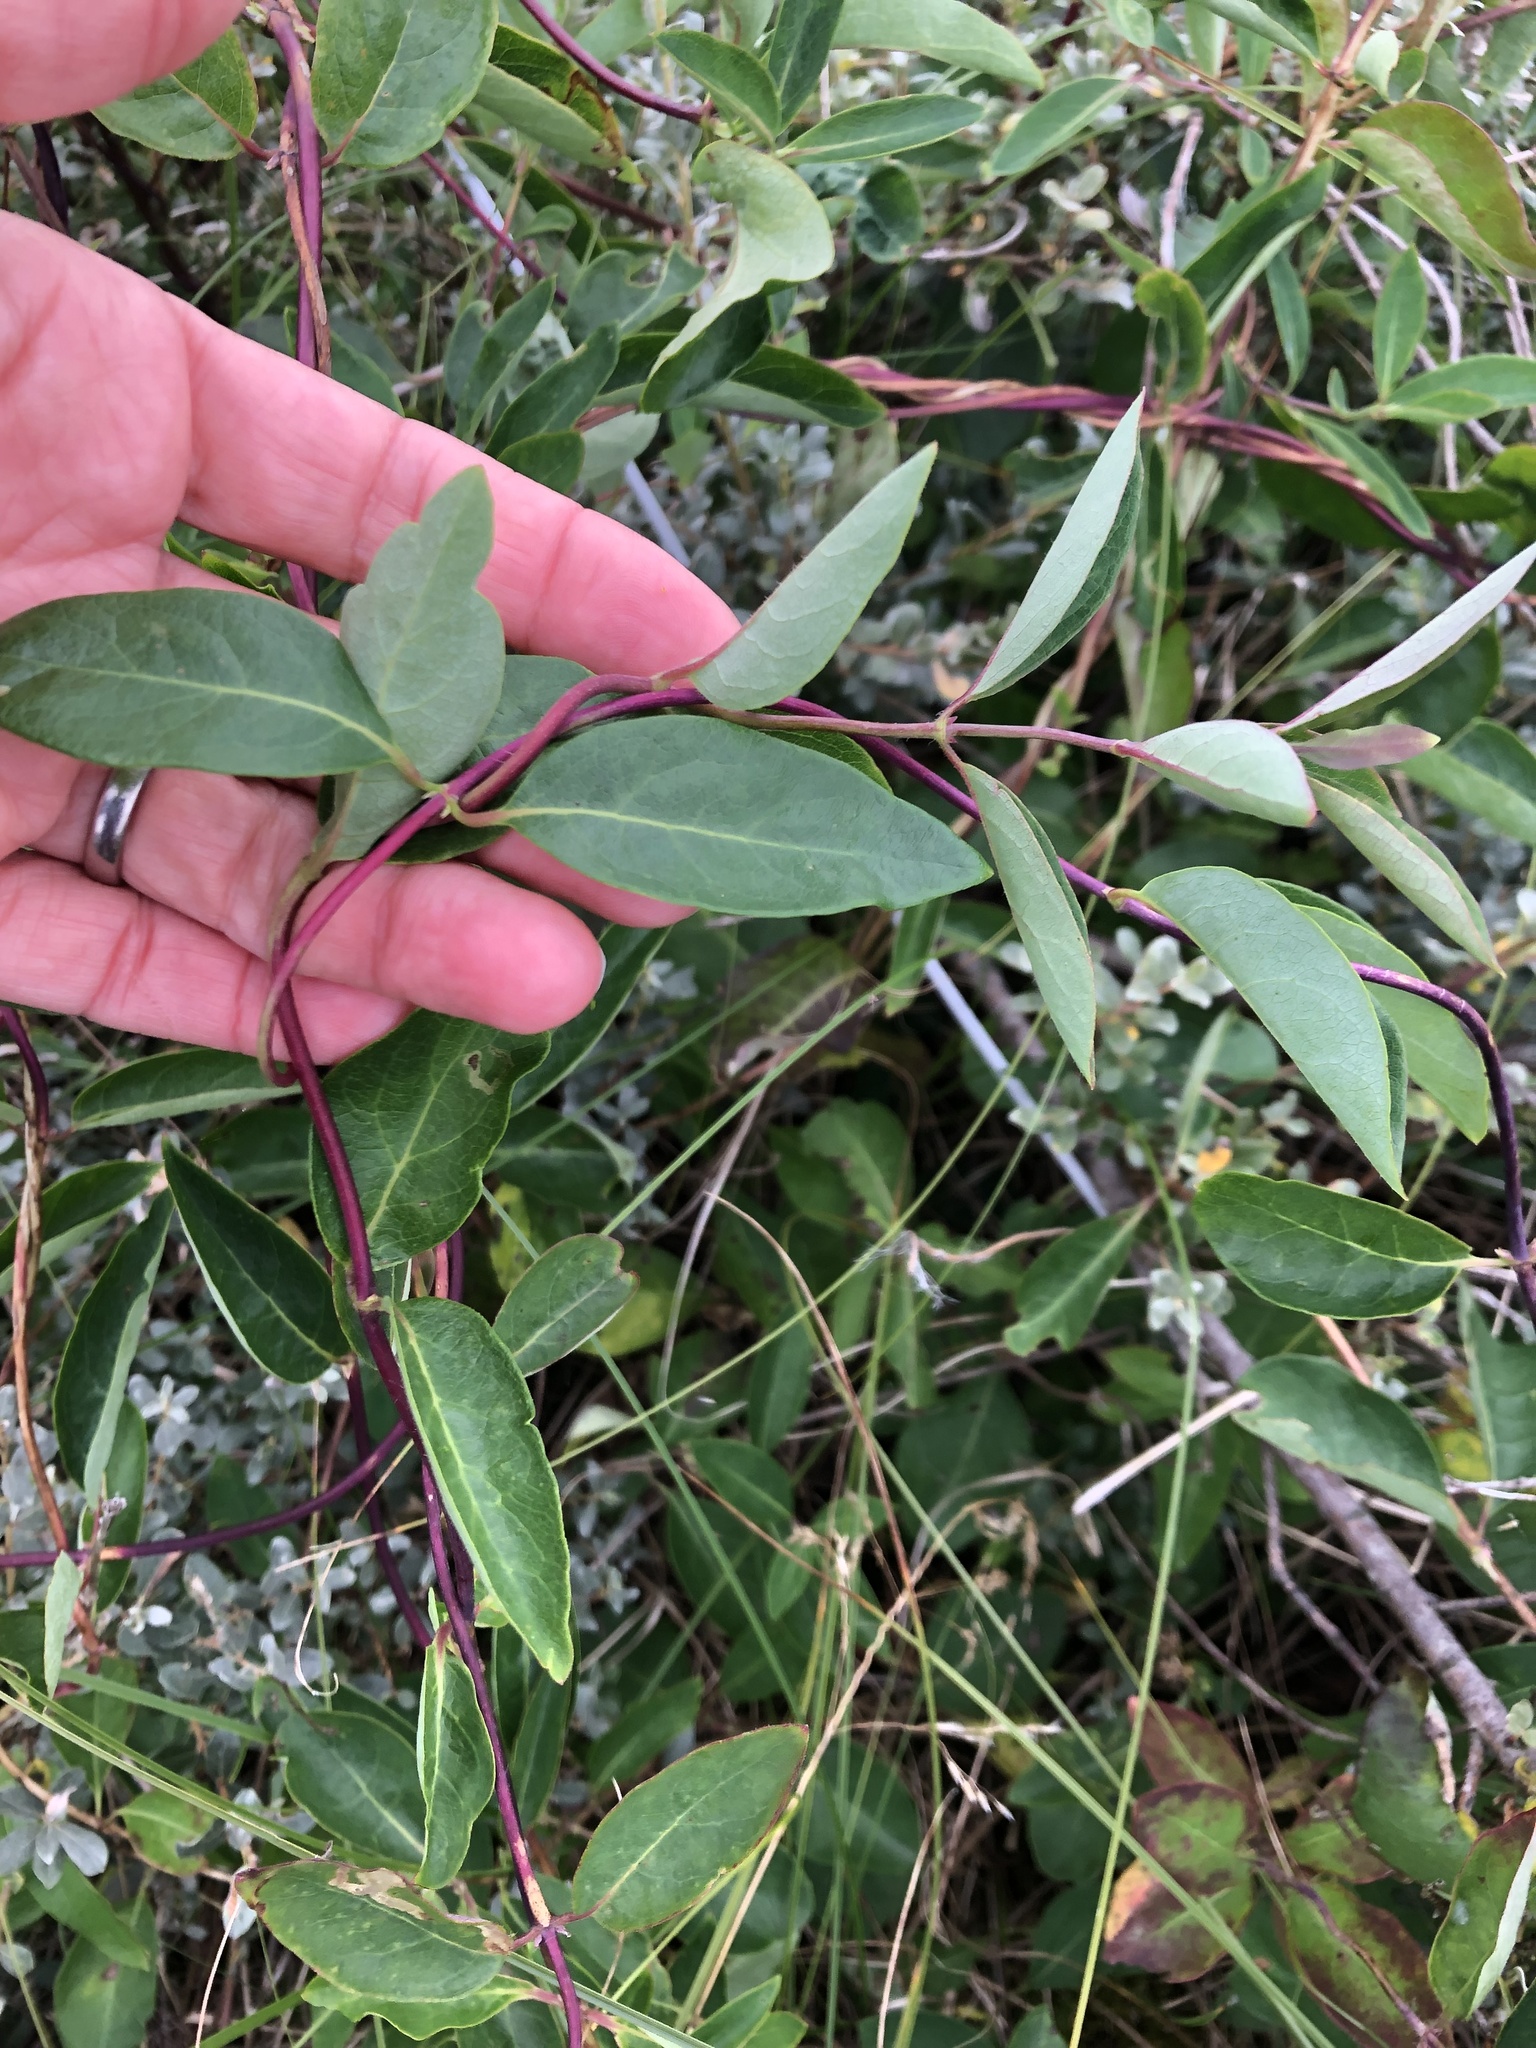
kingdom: Plantae
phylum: Tracheophyta
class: Magnoliopsida
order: Dipsacales
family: Caprifoliaceae
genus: Lonicera
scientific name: Lonicera periclymenum
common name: European honeysuckle
